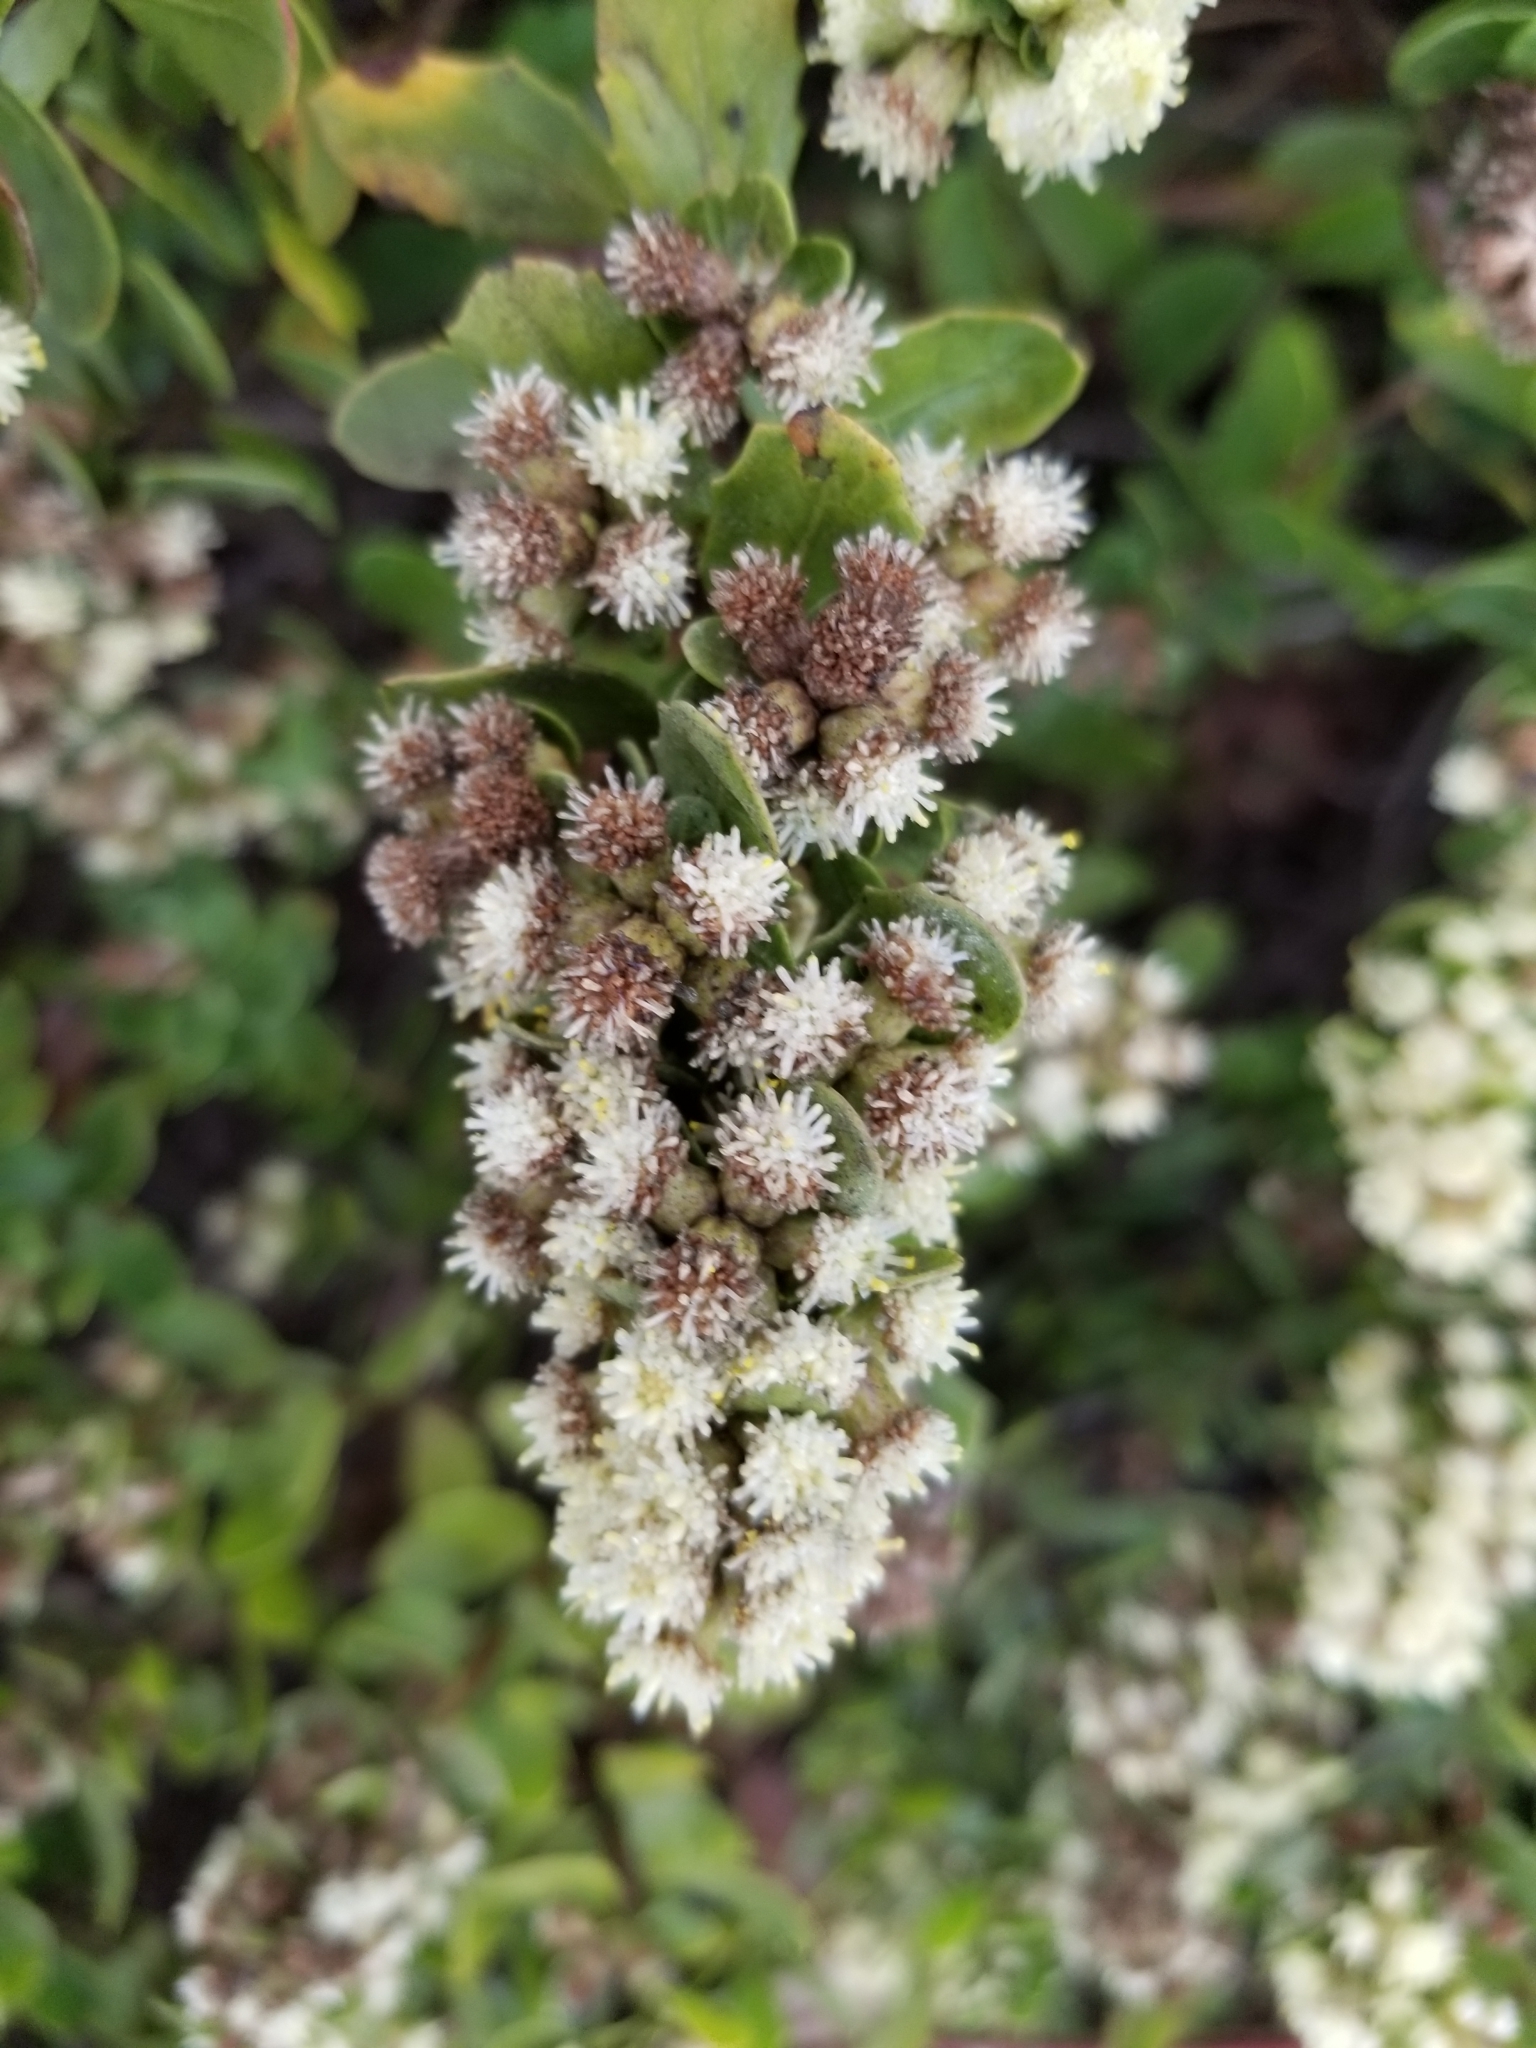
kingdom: Plantae
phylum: Tracheophyta
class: Magnoliopsida
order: Asterales
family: Asteraceae
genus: Baccharis
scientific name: Baccharis pilularis
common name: Coyotebrush
